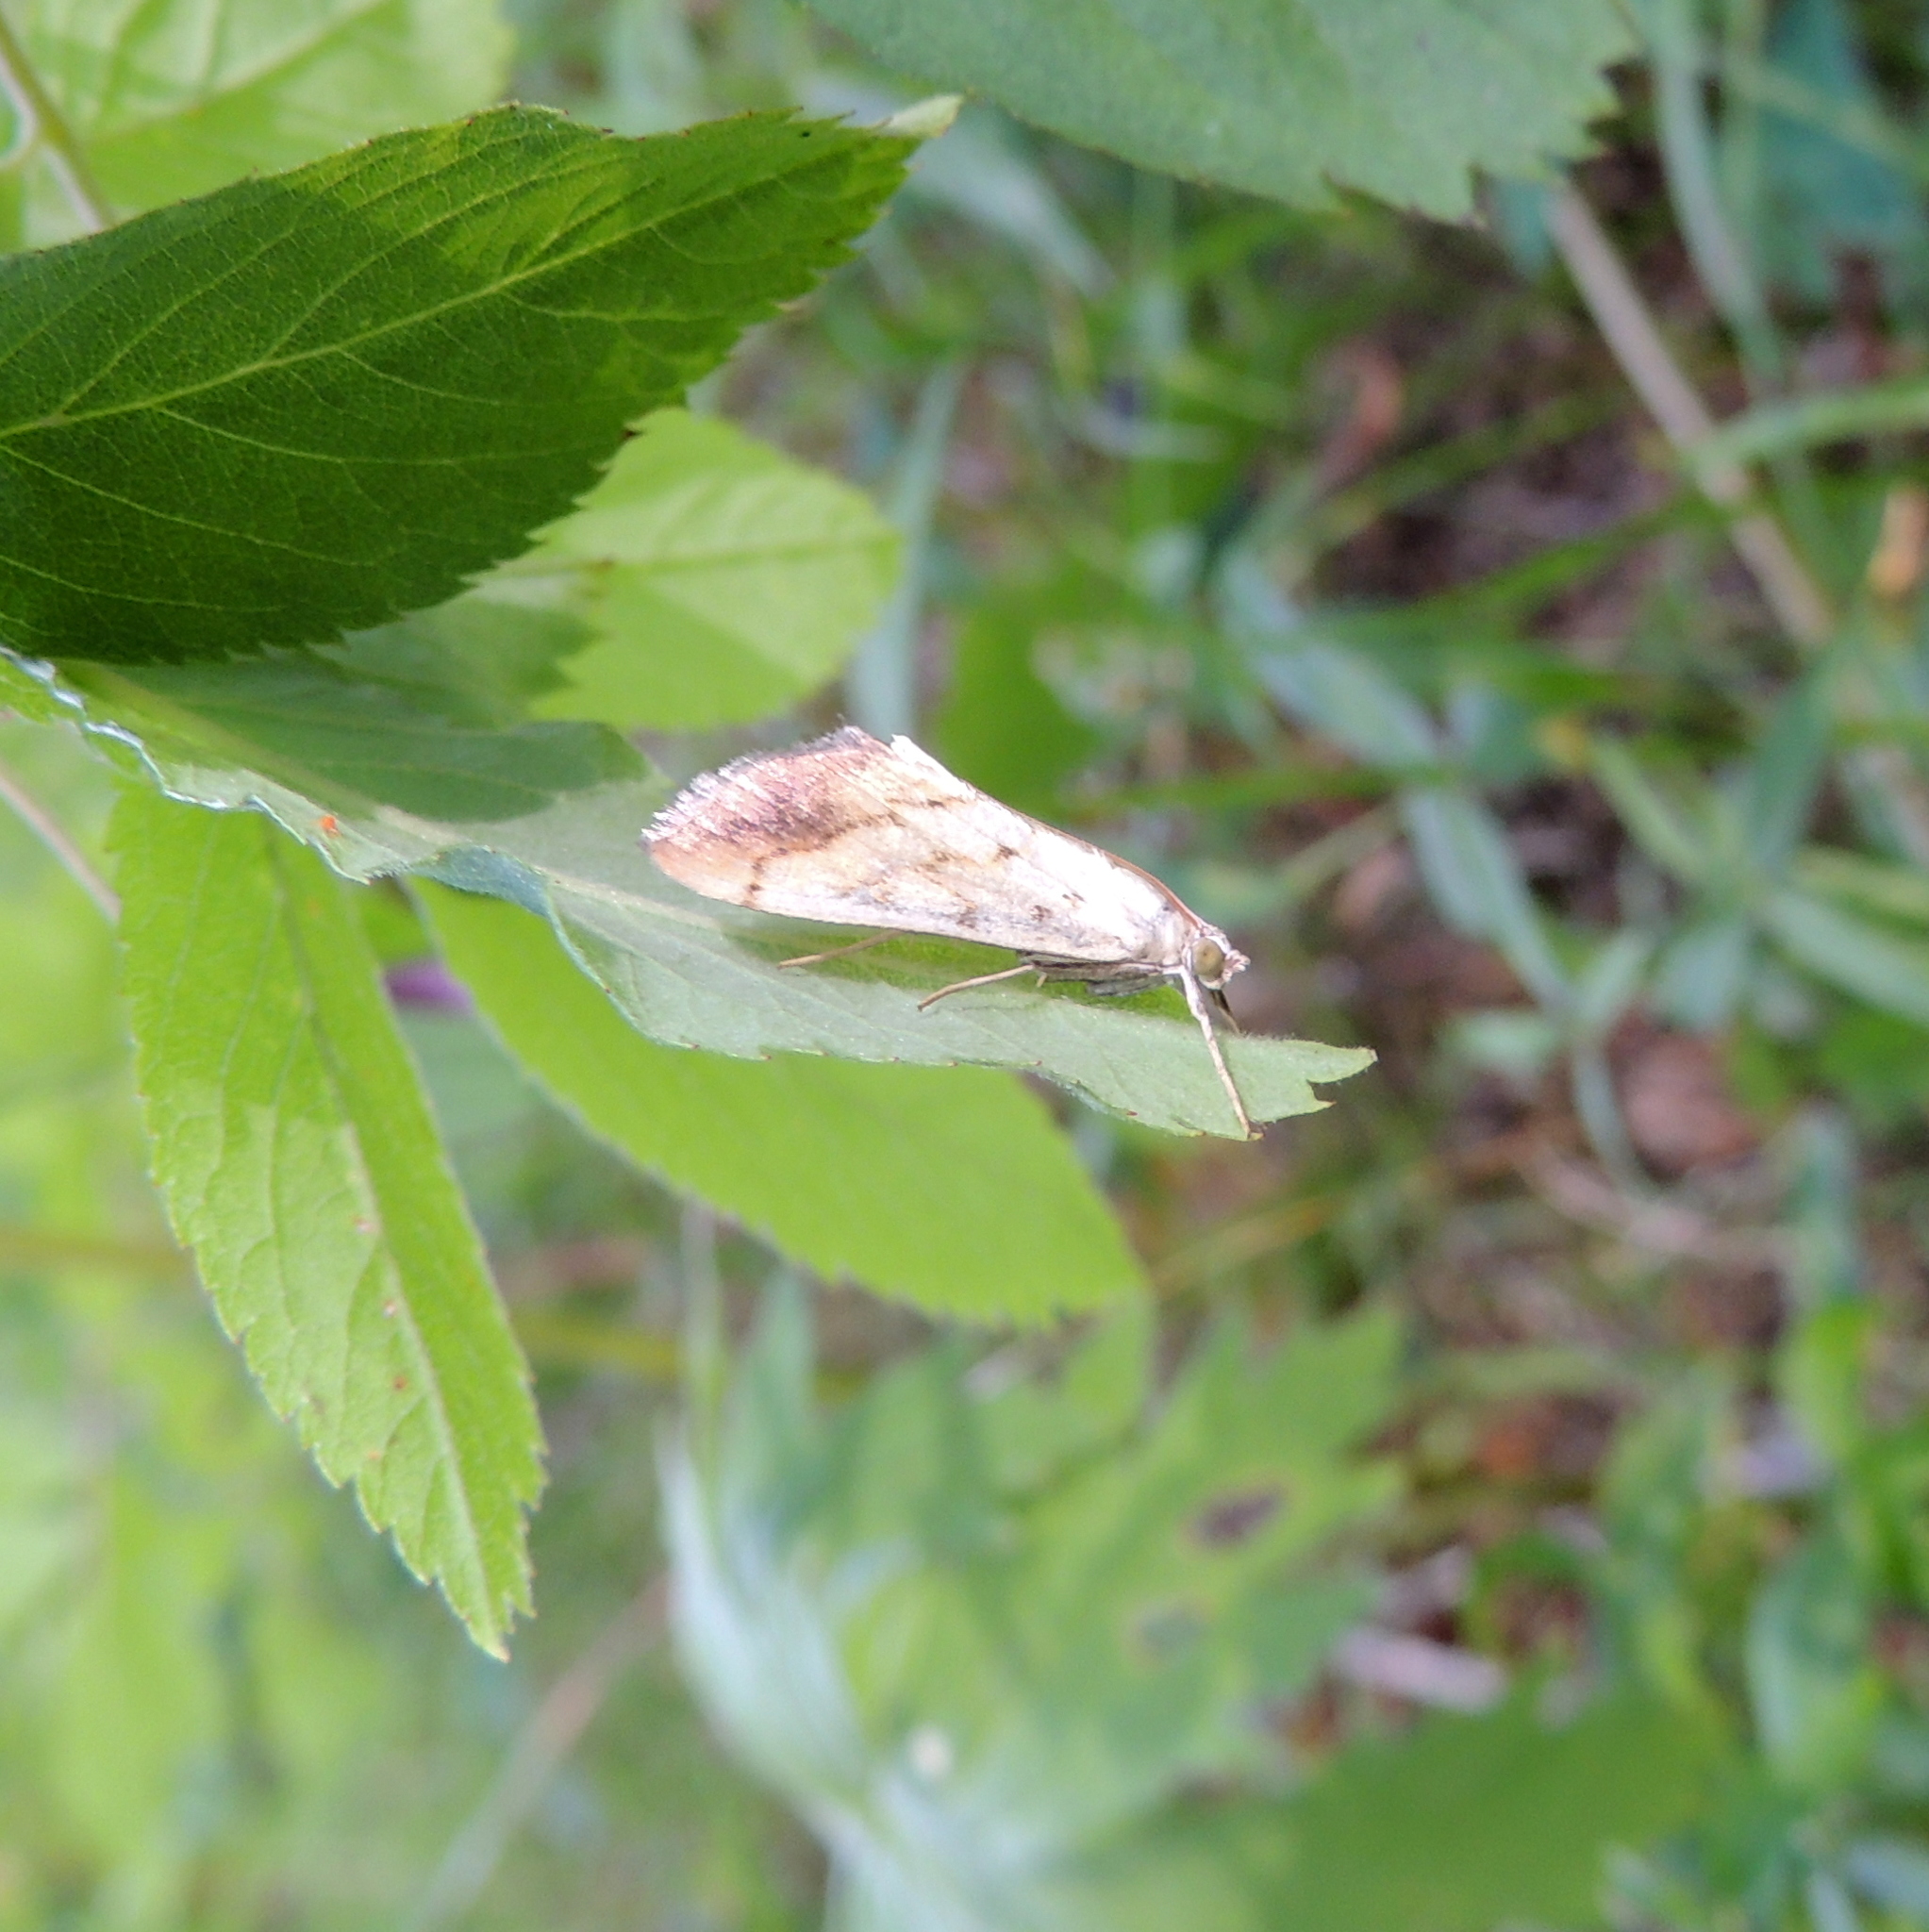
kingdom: Animalia
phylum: Arthropoda
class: Insecta
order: Lepidoptera
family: Crambidae
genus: Evergestis
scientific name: Evergestis extimalis
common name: Marbled yellow pearl
